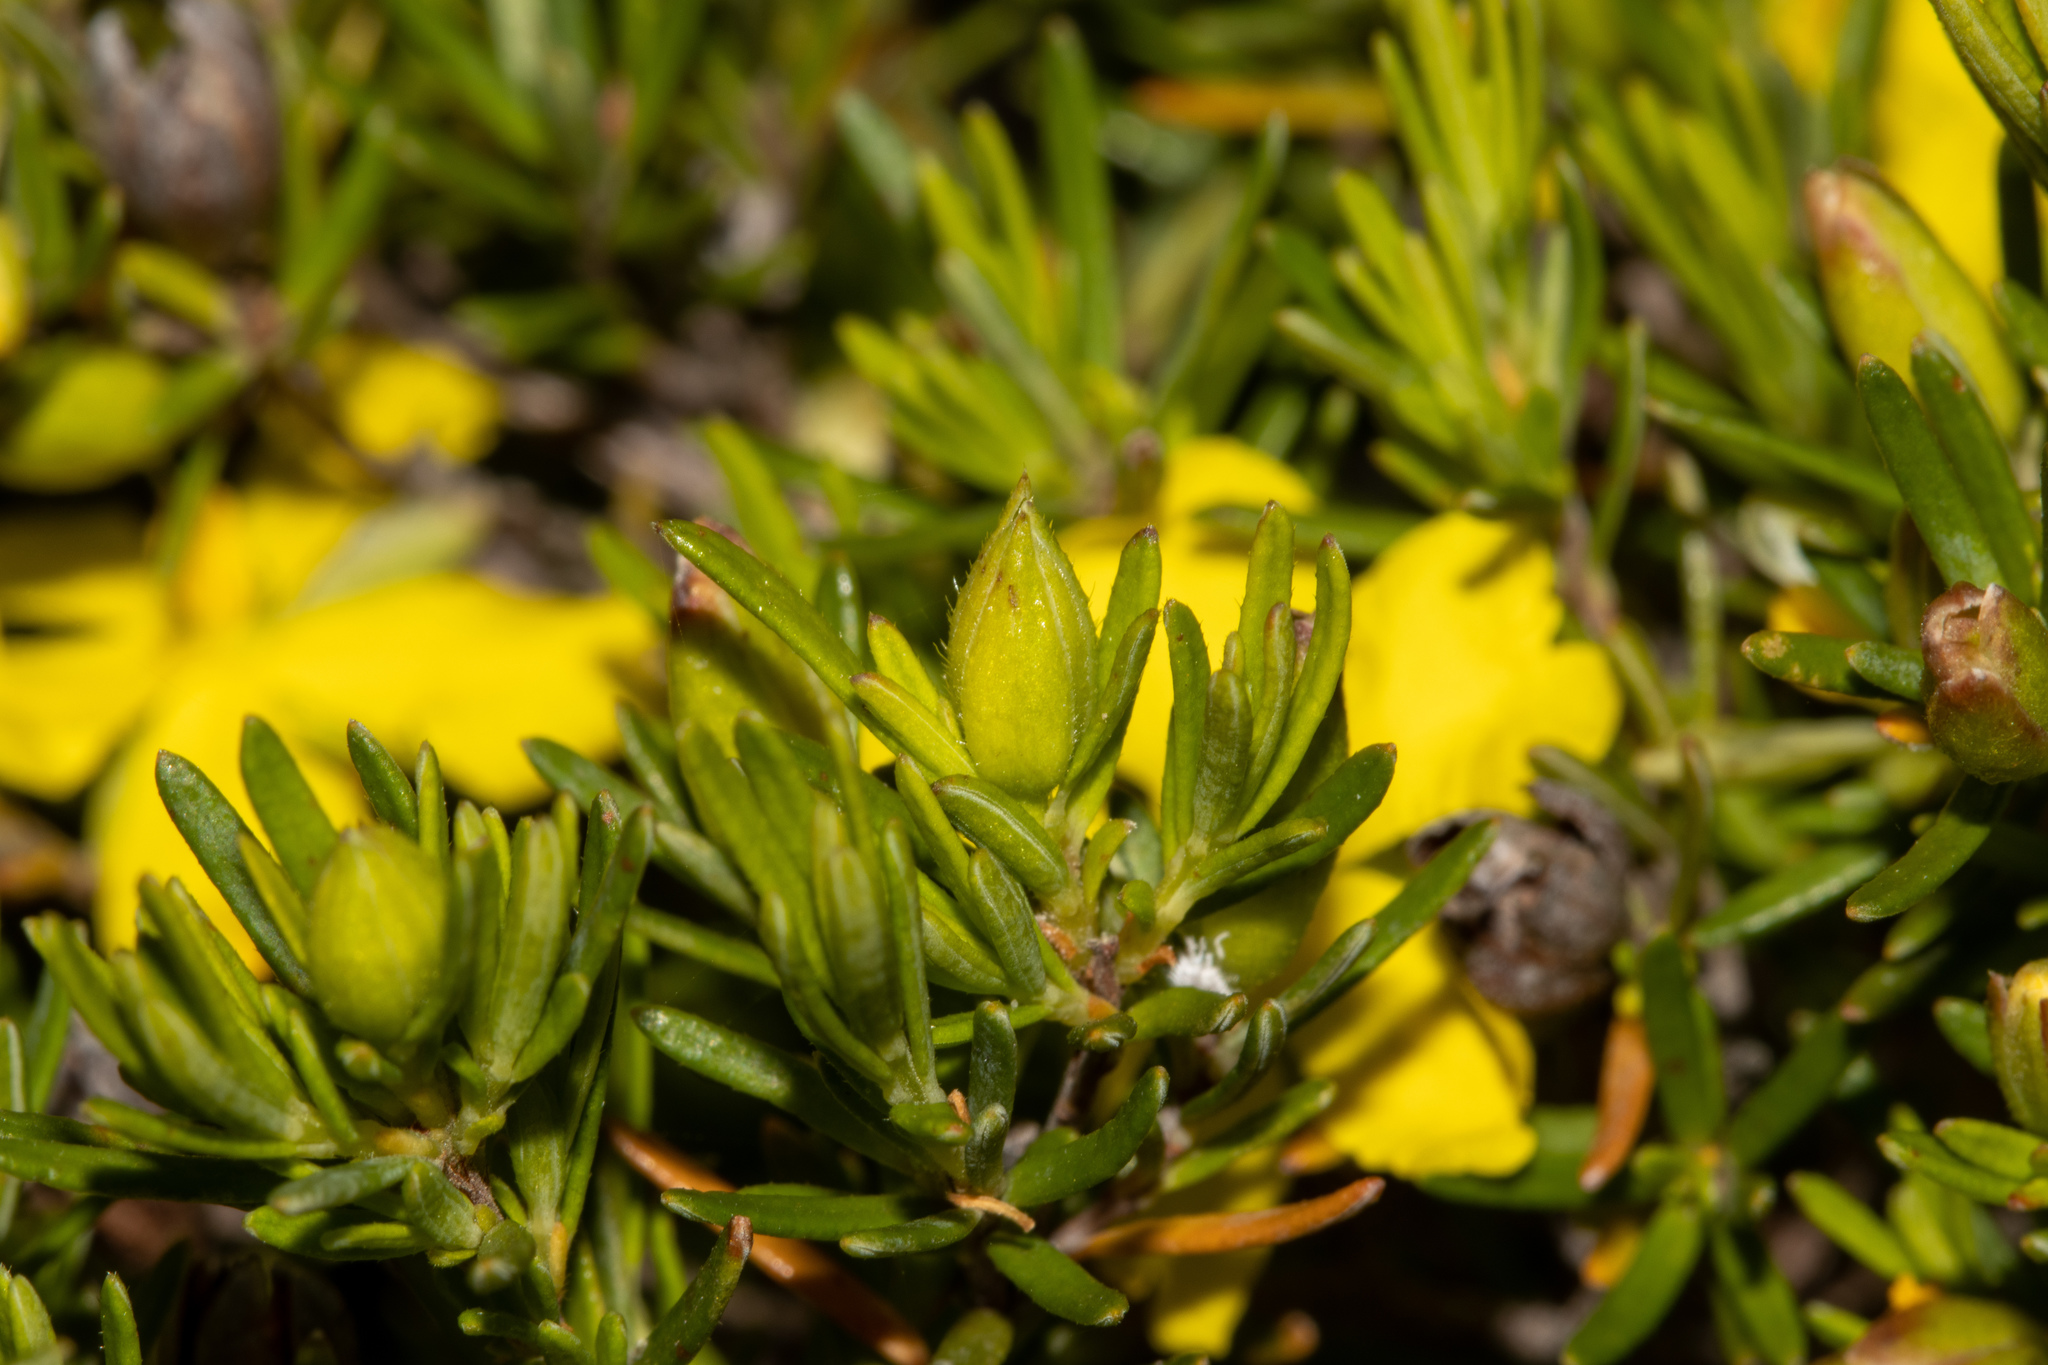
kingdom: Plantae
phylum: Tracheophyta
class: Magnoliopsida
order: Dilleniales
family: Dilleniaceae
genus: Hibbertia
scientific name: Hibbertia riparia
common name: Erect guinea-flower
